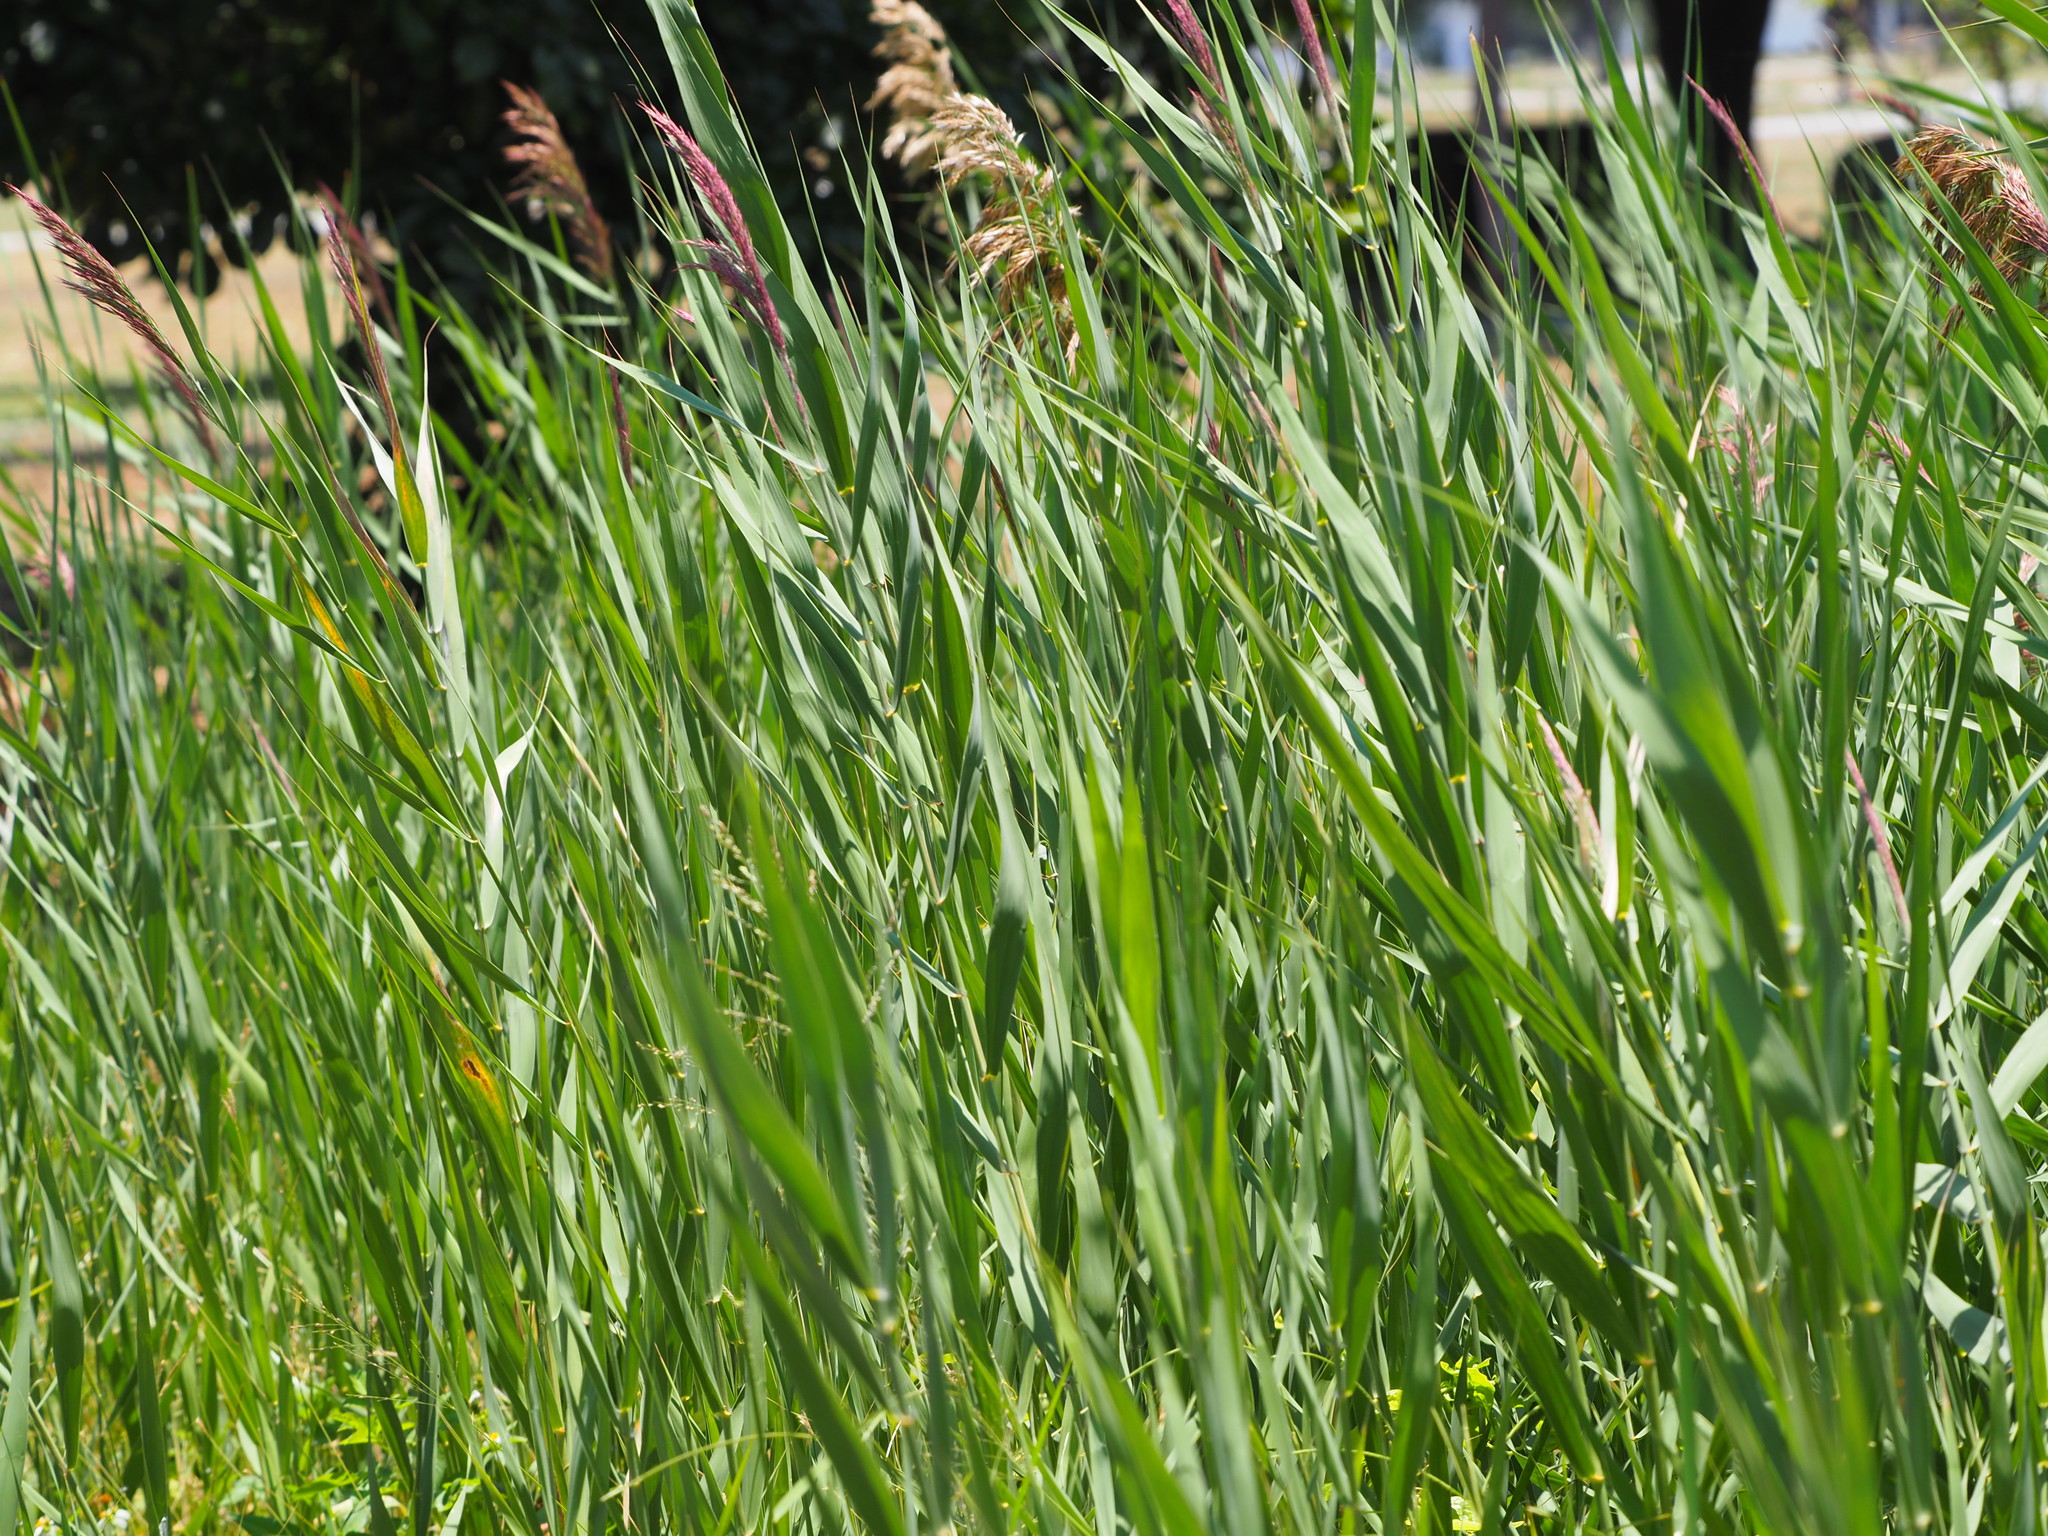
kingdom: Plantae
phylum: Tracheophyta
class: Liliopsida
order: Poales
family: Poaceae
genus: Phragmites
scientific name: Phragmites australis
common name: Common reed
